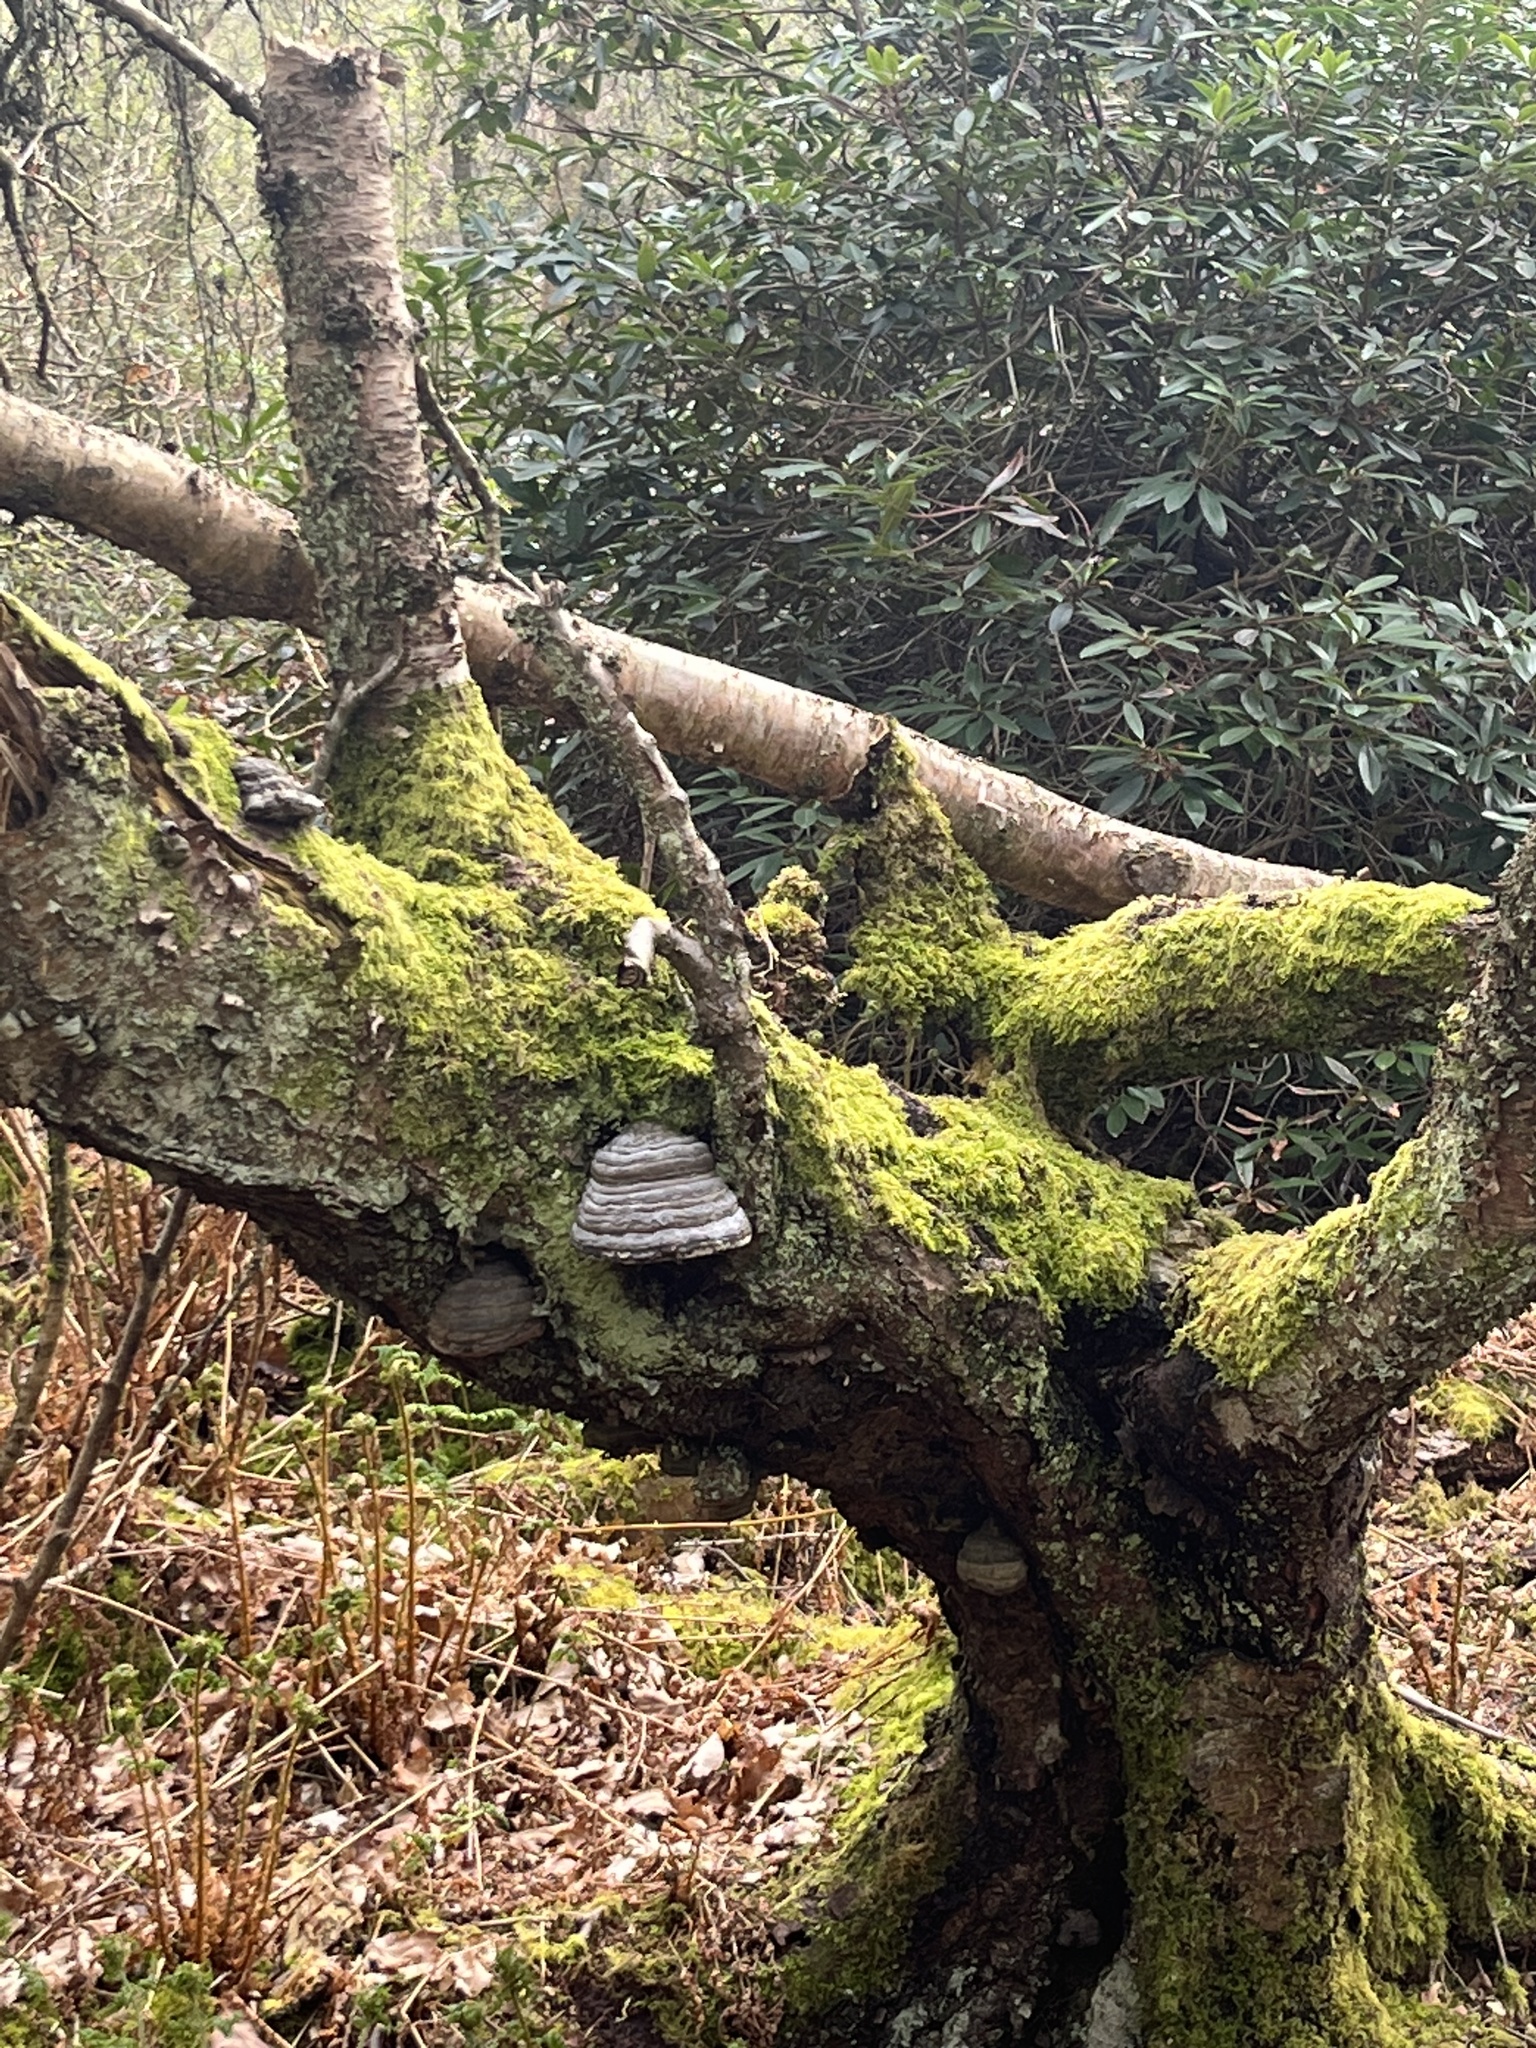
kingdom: Fungi
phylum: Basidiomycota
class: Agaricomycetes
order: Polyporales
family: Polyporaceae
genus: Fomes
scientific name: Fomes fomentarius
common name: Hoof fungus
